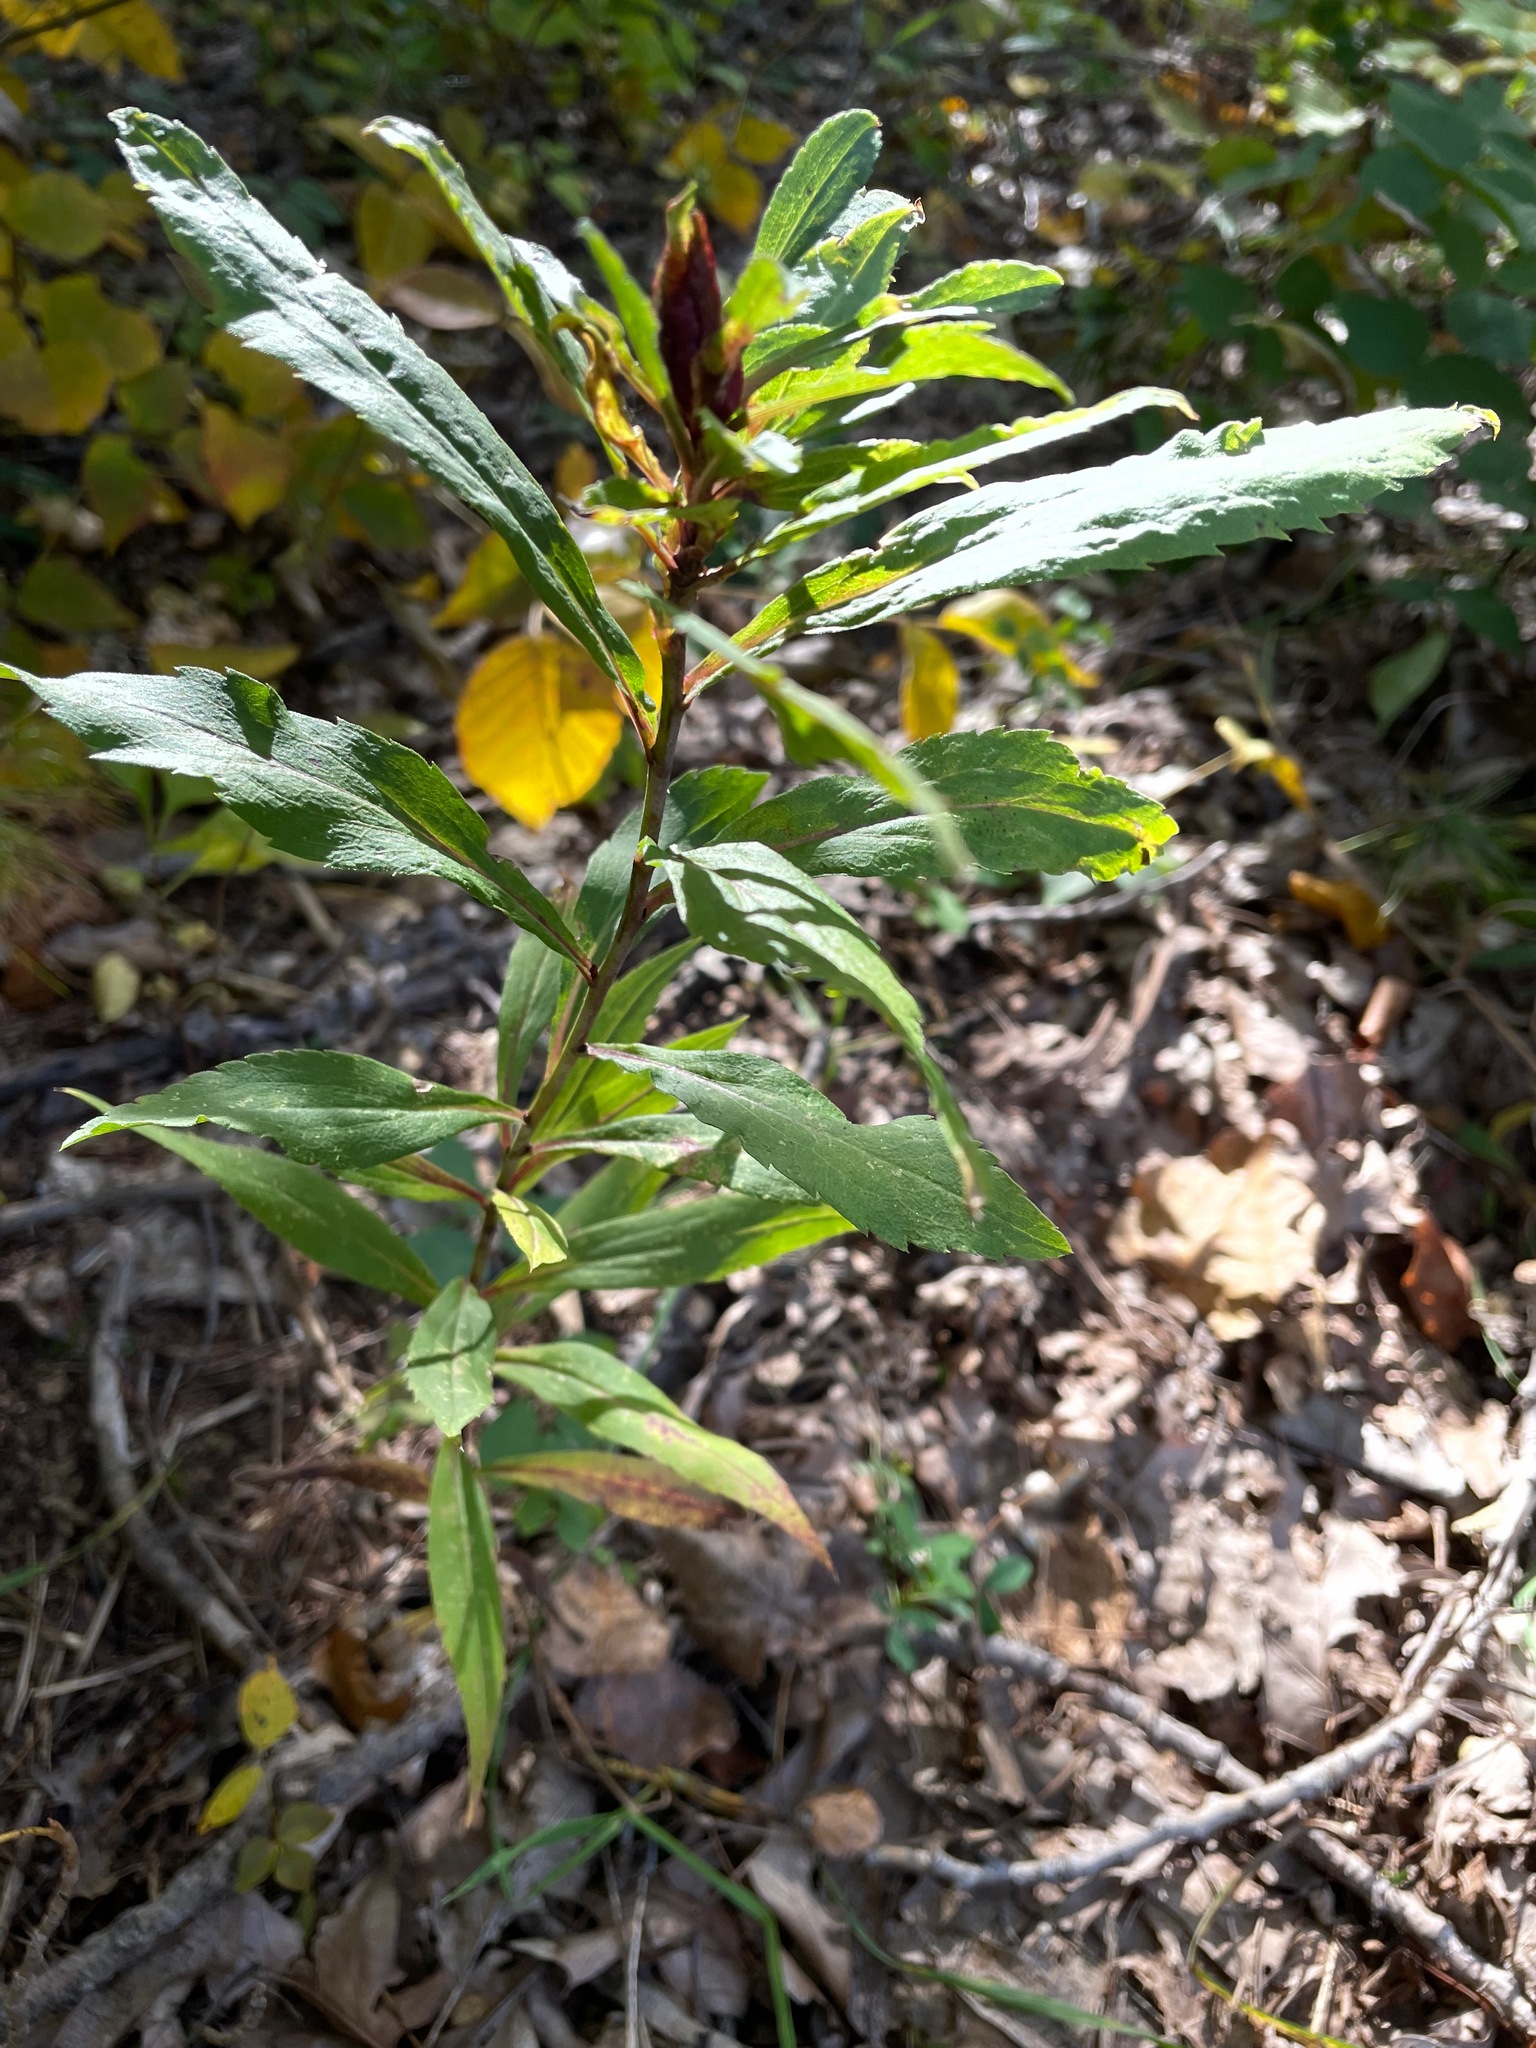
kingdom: Plantae
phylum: Tracheophyta
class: Magnoliopsida
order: Asterales
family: Asteraceae
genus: Solidago
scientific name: Solidago gigantea
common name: Giant goldenrod
